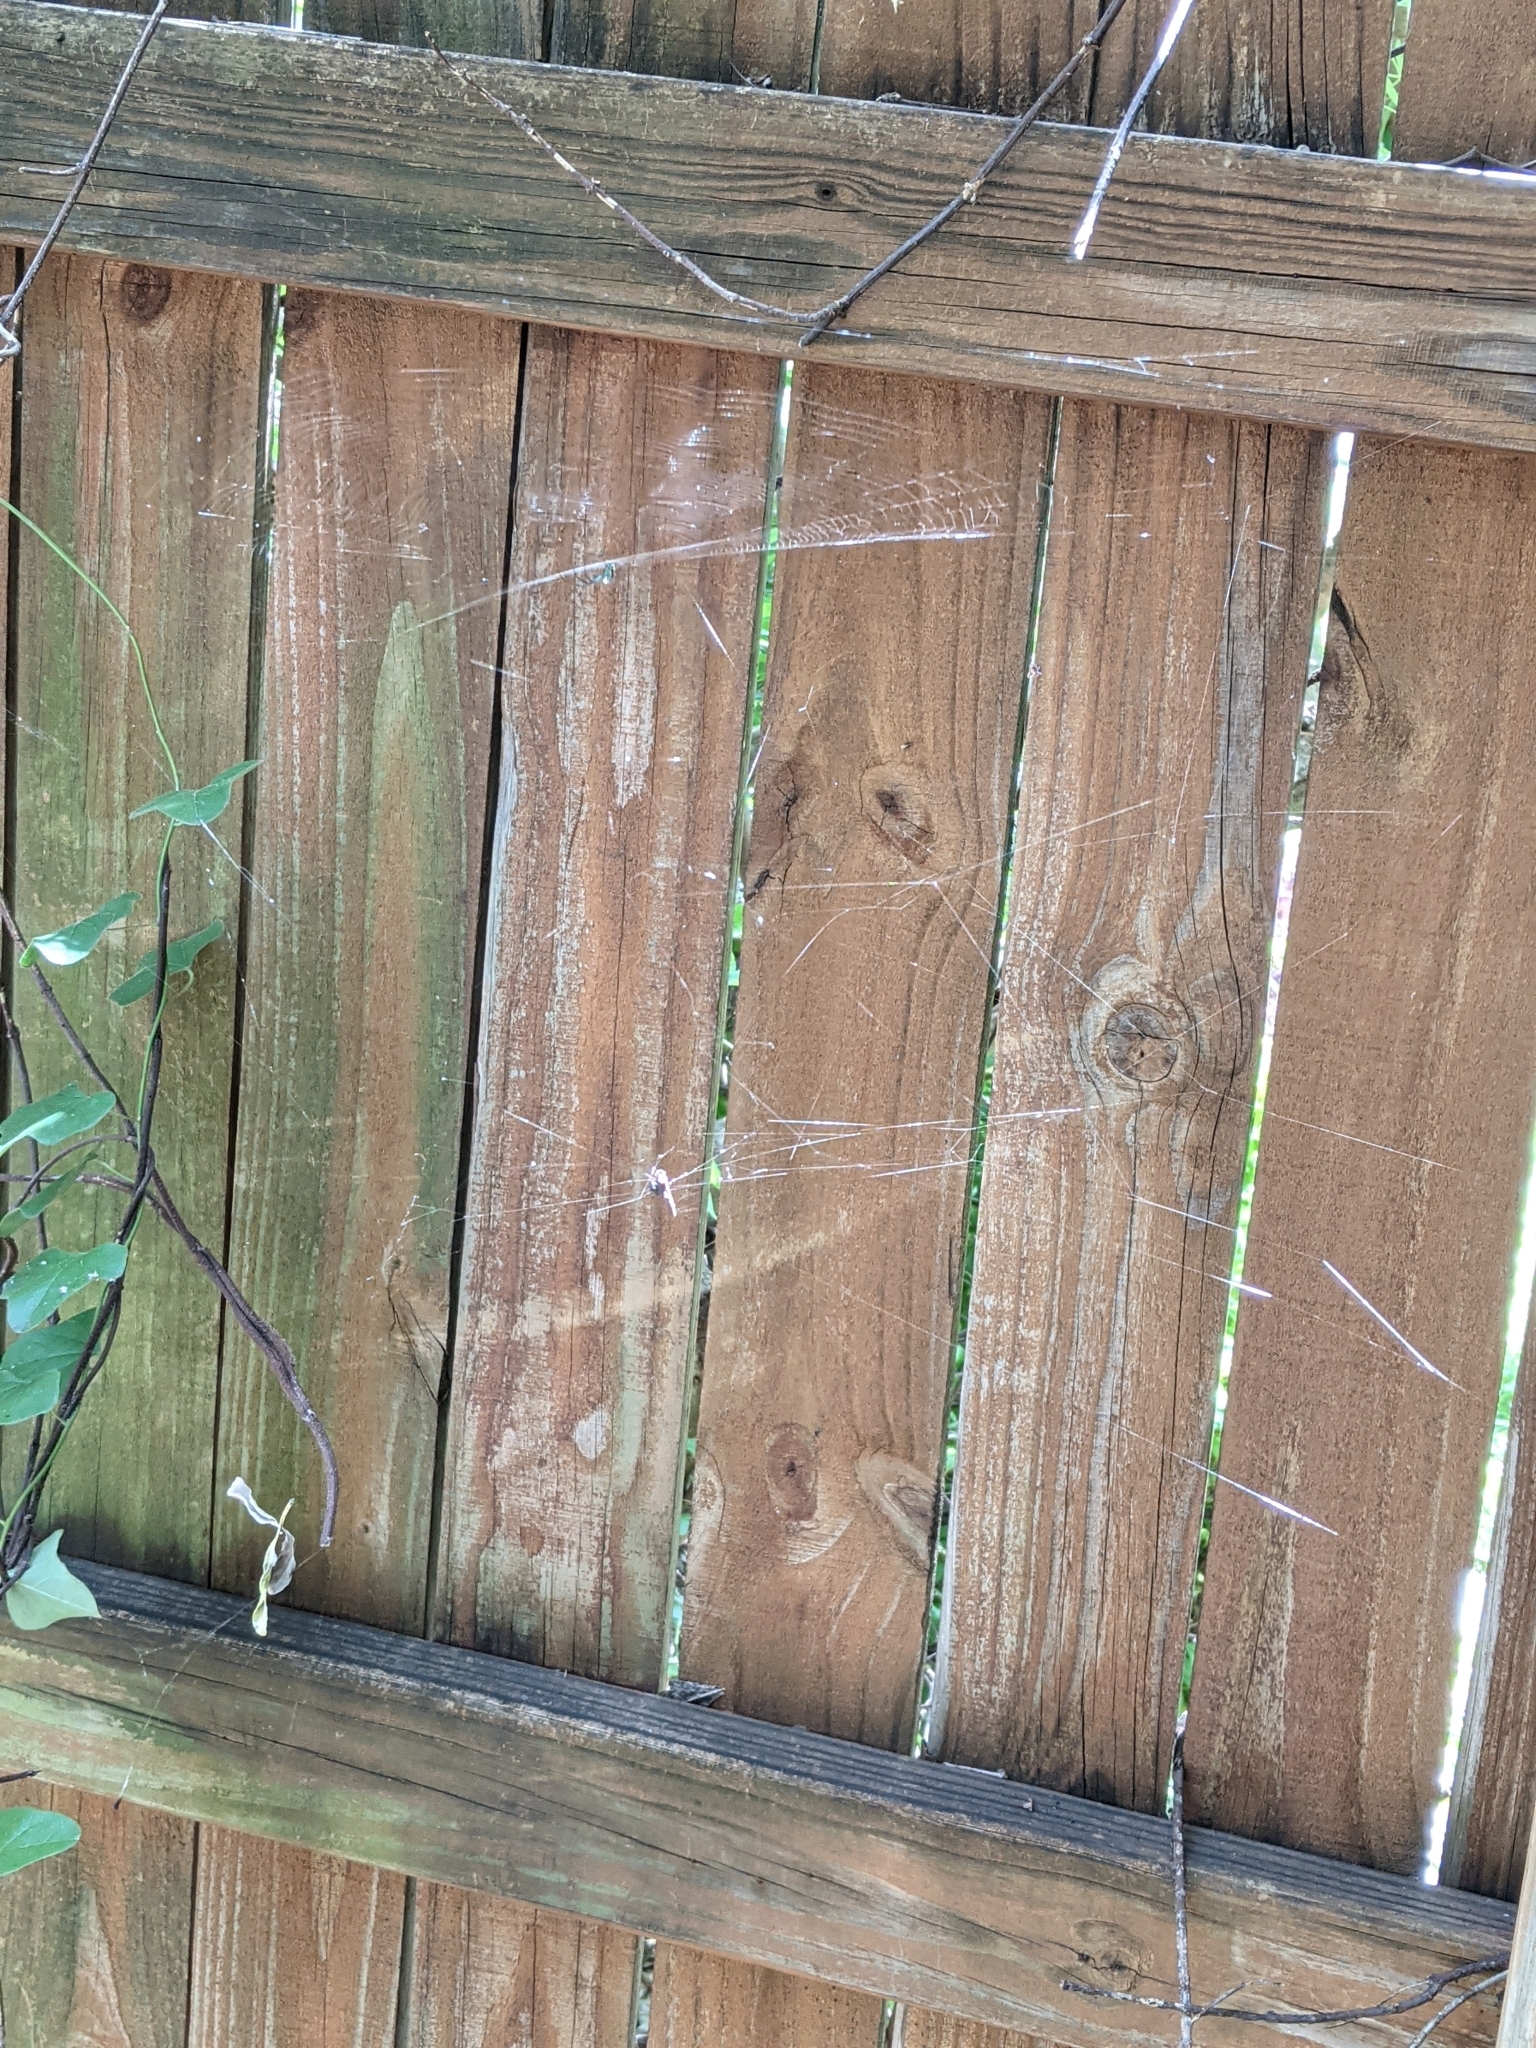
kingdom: Animalia
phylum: Arthropoda
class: Arachnida
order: Araneae
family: Tetragnathidae
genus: Leucauge
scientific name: Leucauge venusta
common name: Longjawed orb weavers
